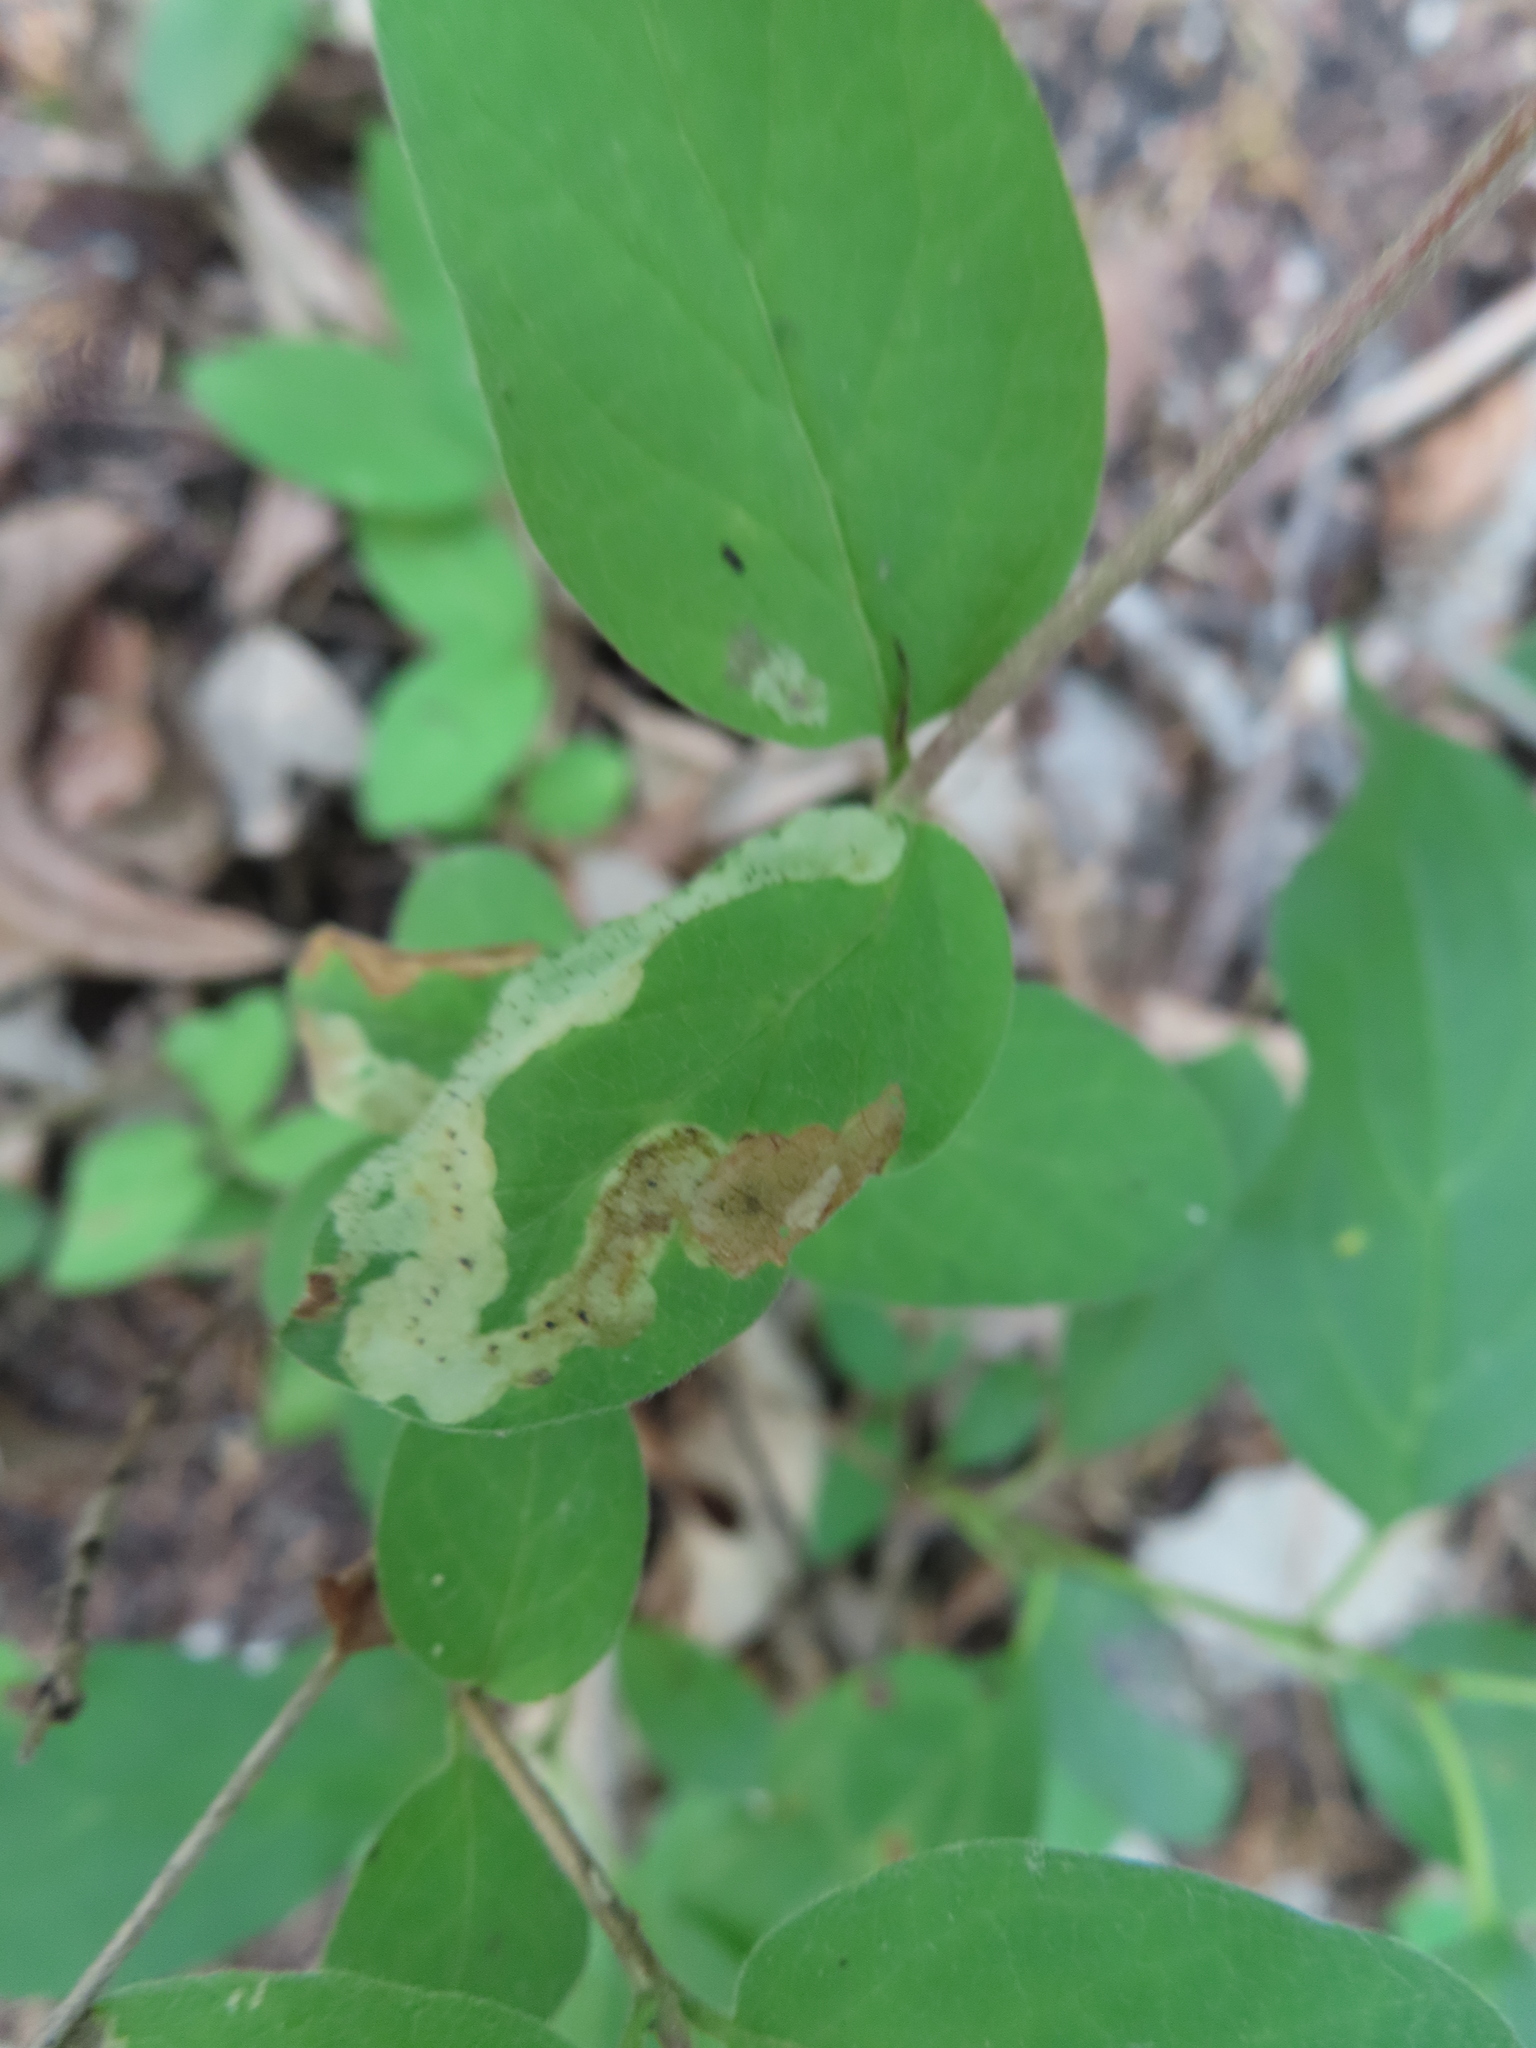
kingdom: Animalia
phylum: Arthropoda
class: Insecta
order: Diptera
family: Agromyzidae
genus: Aulagromyza
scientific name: Aulagromyza cornigera
